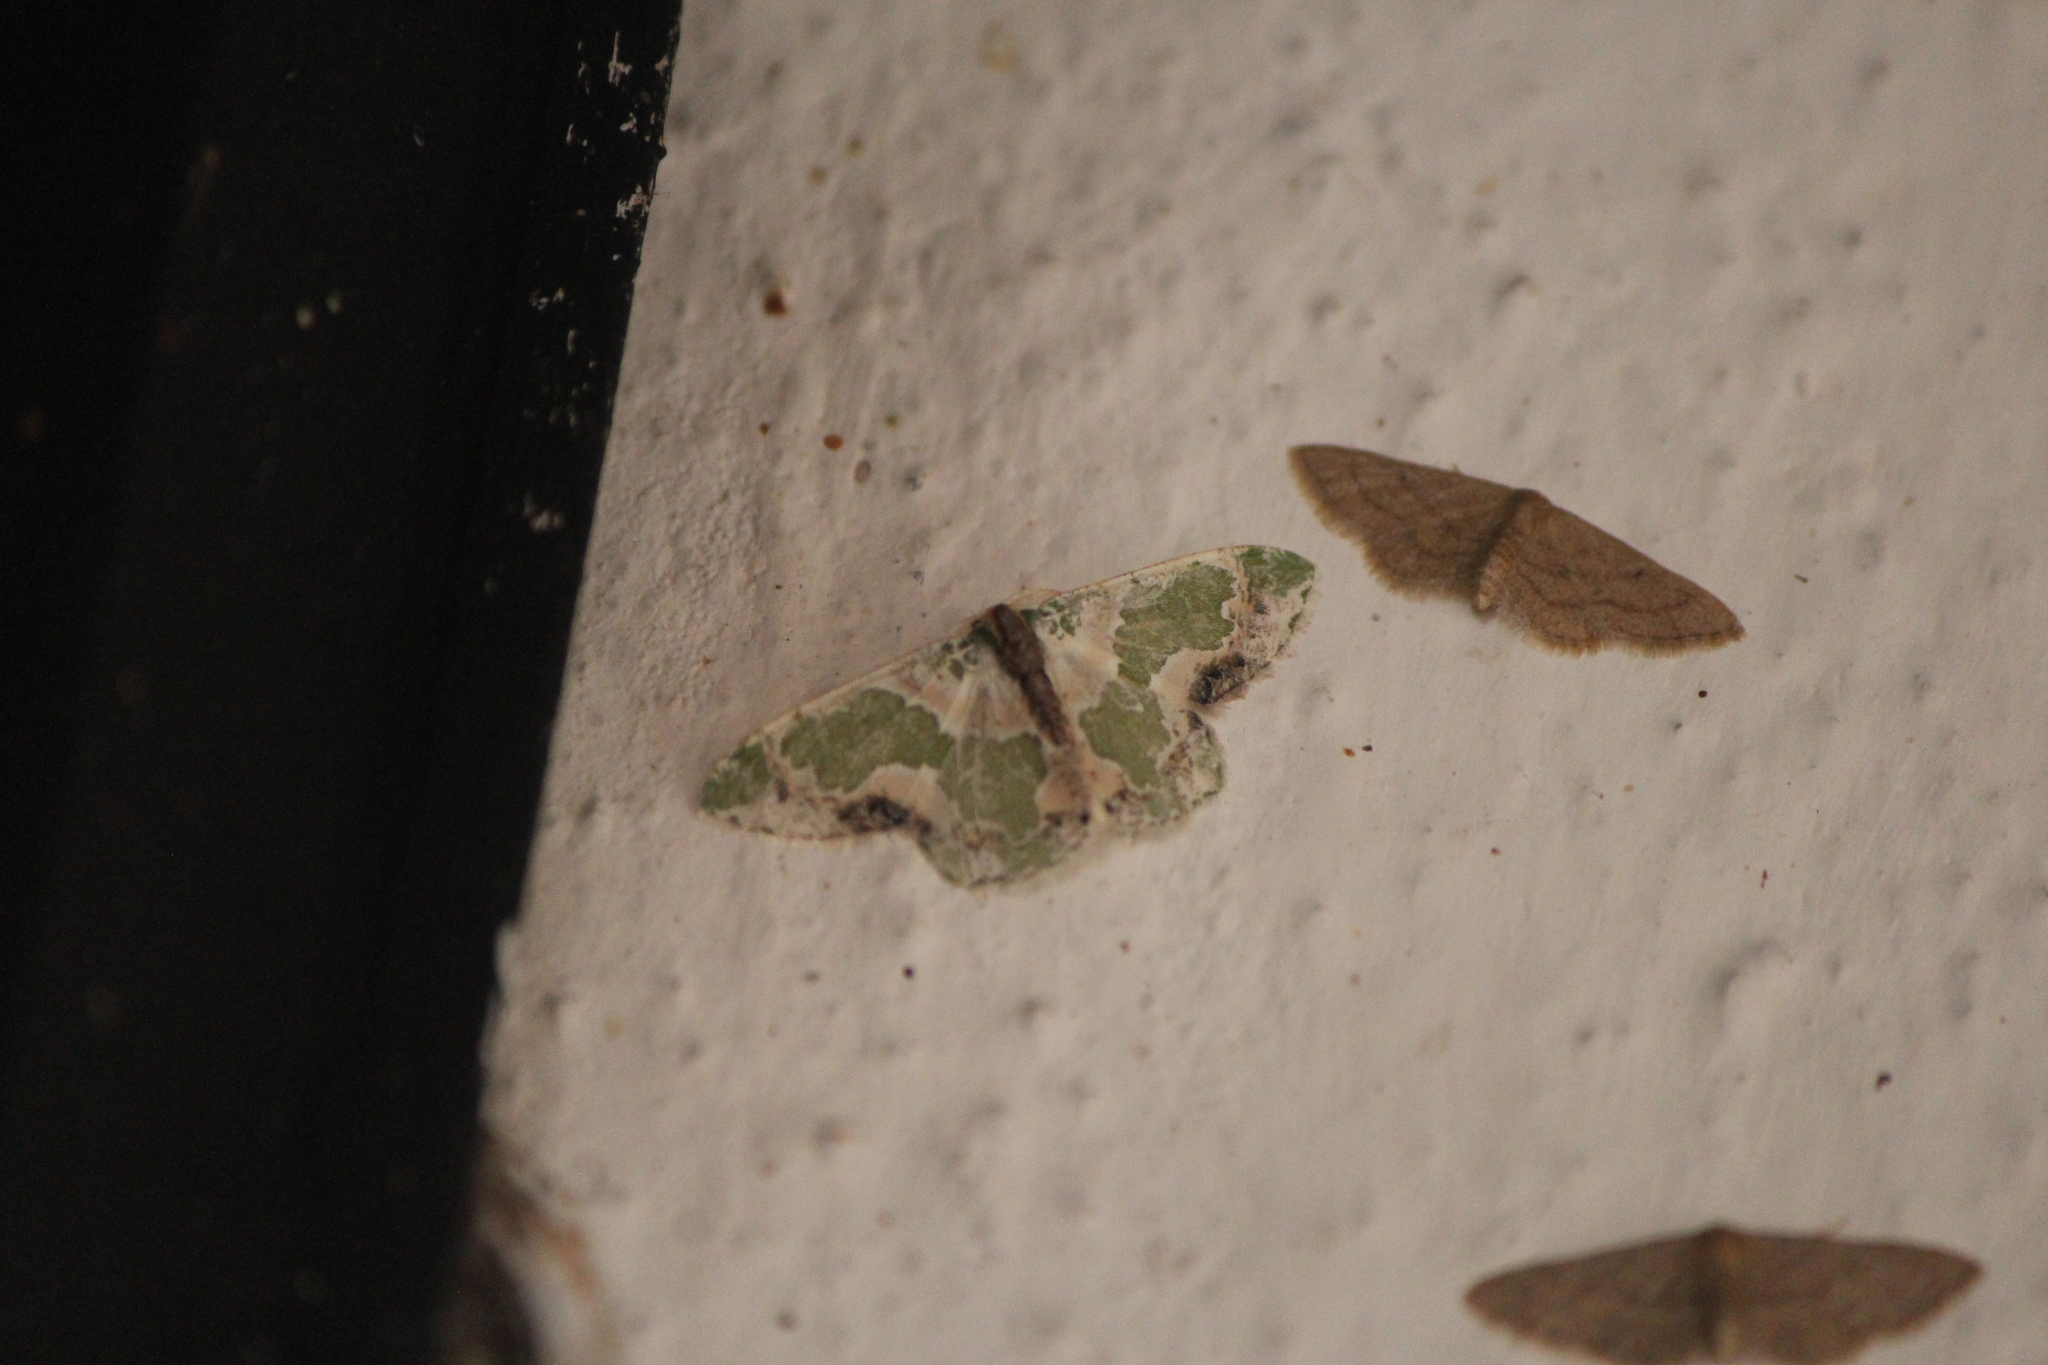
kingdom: Animalia
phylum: Arthropoda
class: Insecta
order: Lepidoptera
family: Geometridae
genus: Lophochorista
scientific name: Lophochorista calliope
